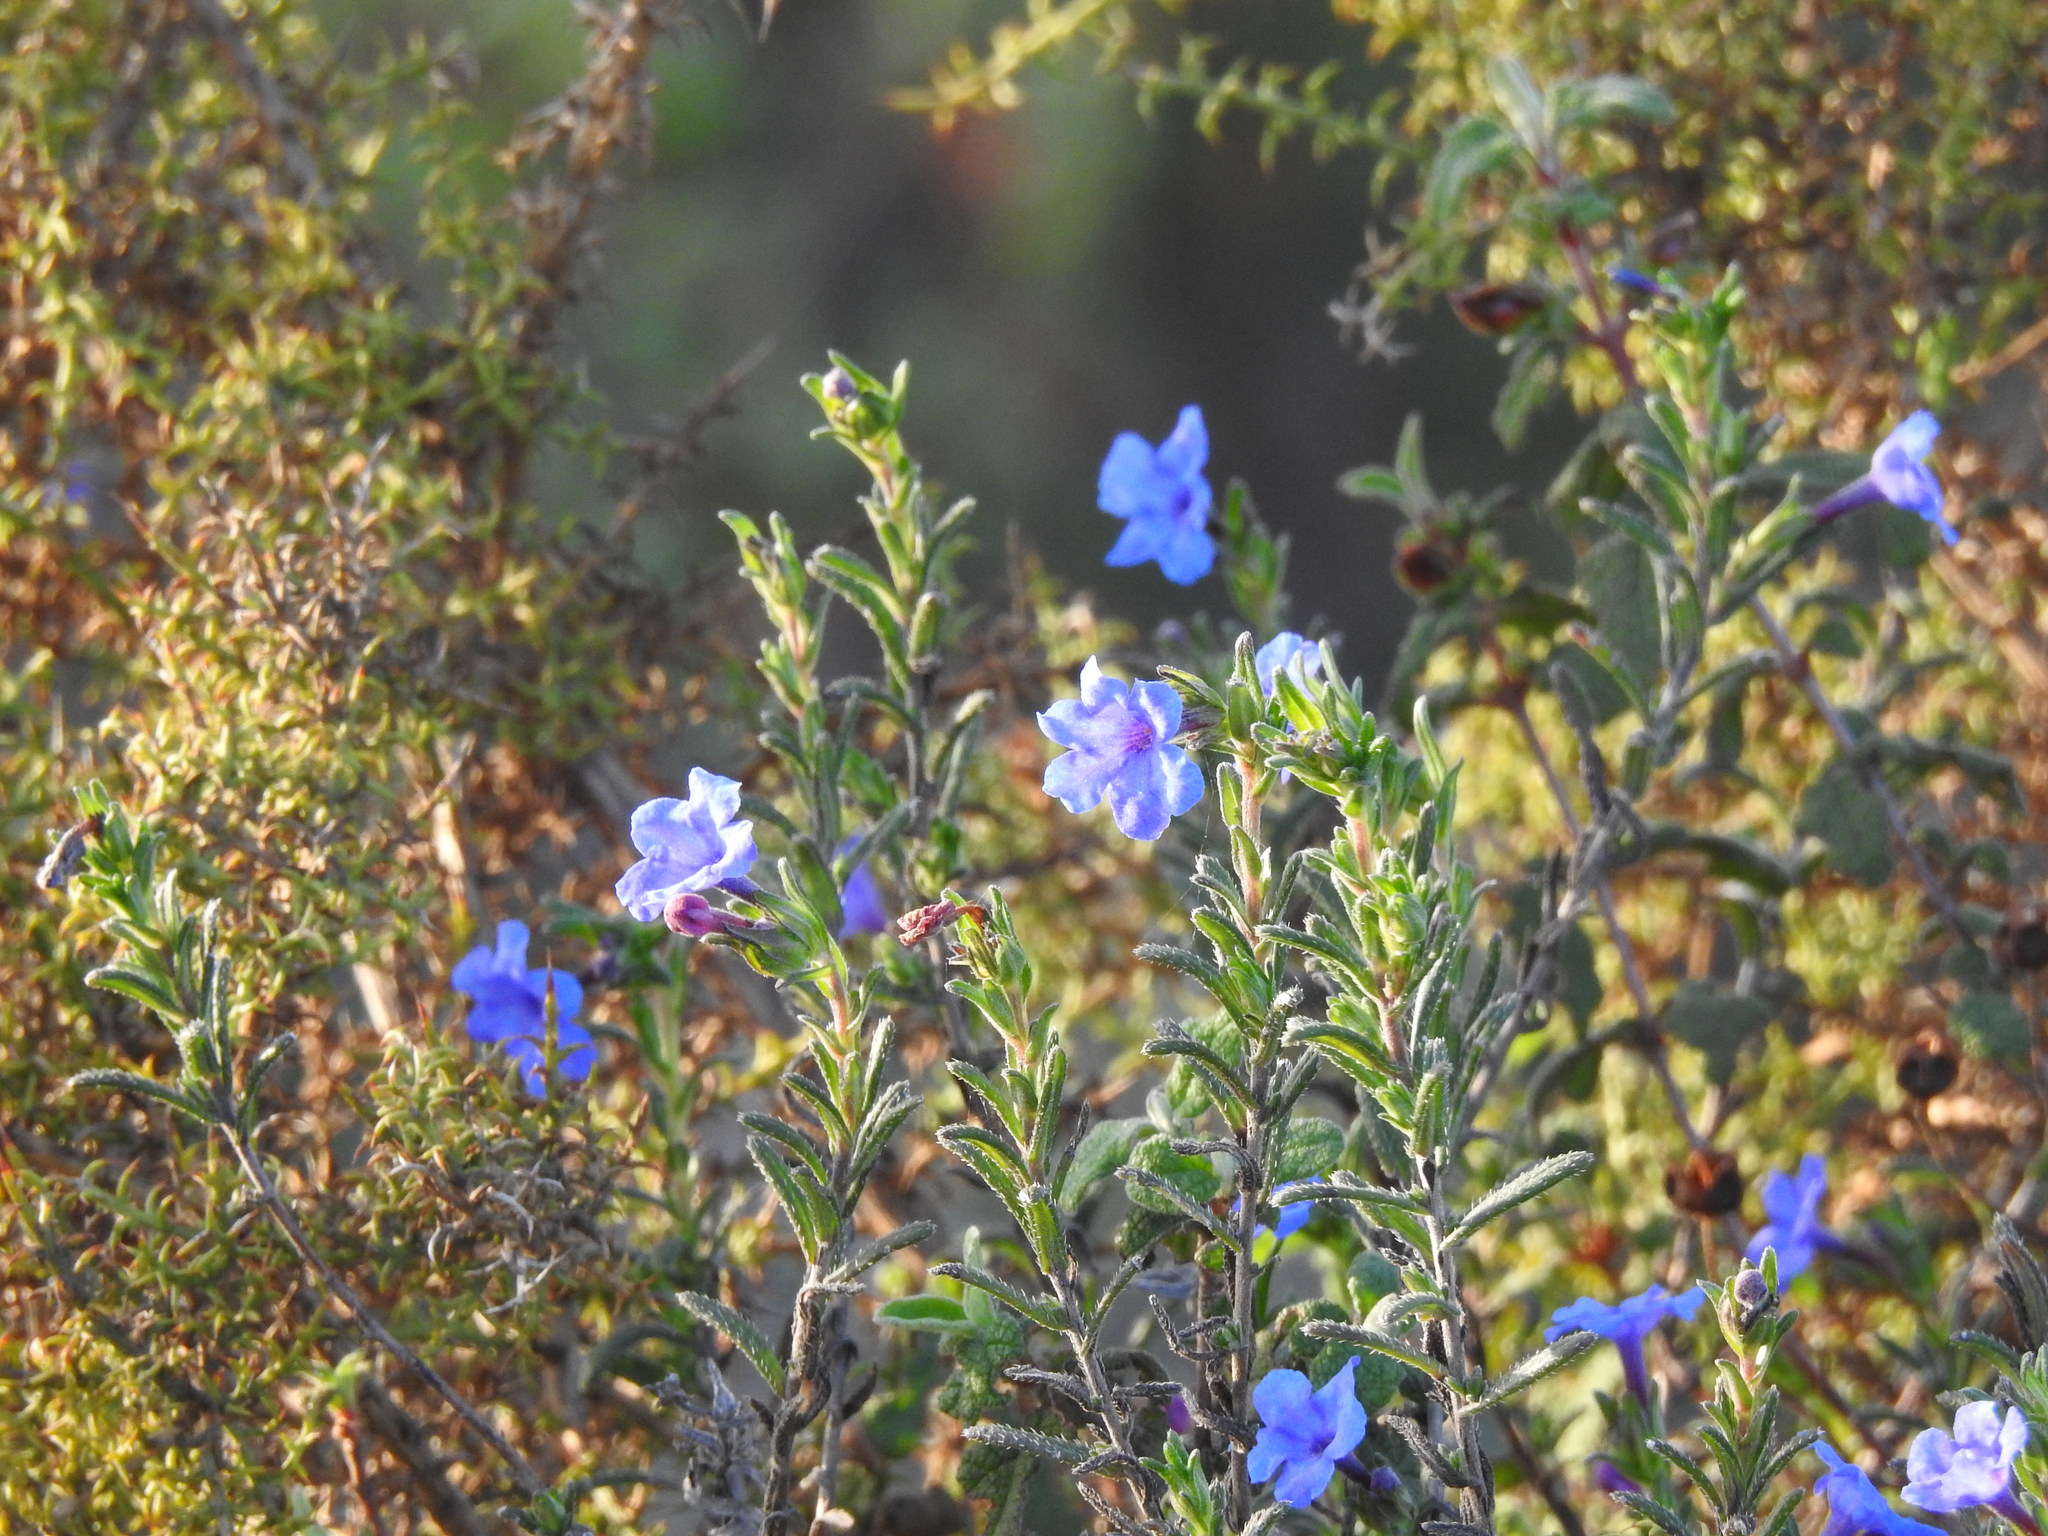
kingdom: Plantae
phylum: Tracheophyta
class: Magnoliopsida
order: Boraginales
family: Boraginaceae
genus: Glandora
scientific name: Glandora prostrata
